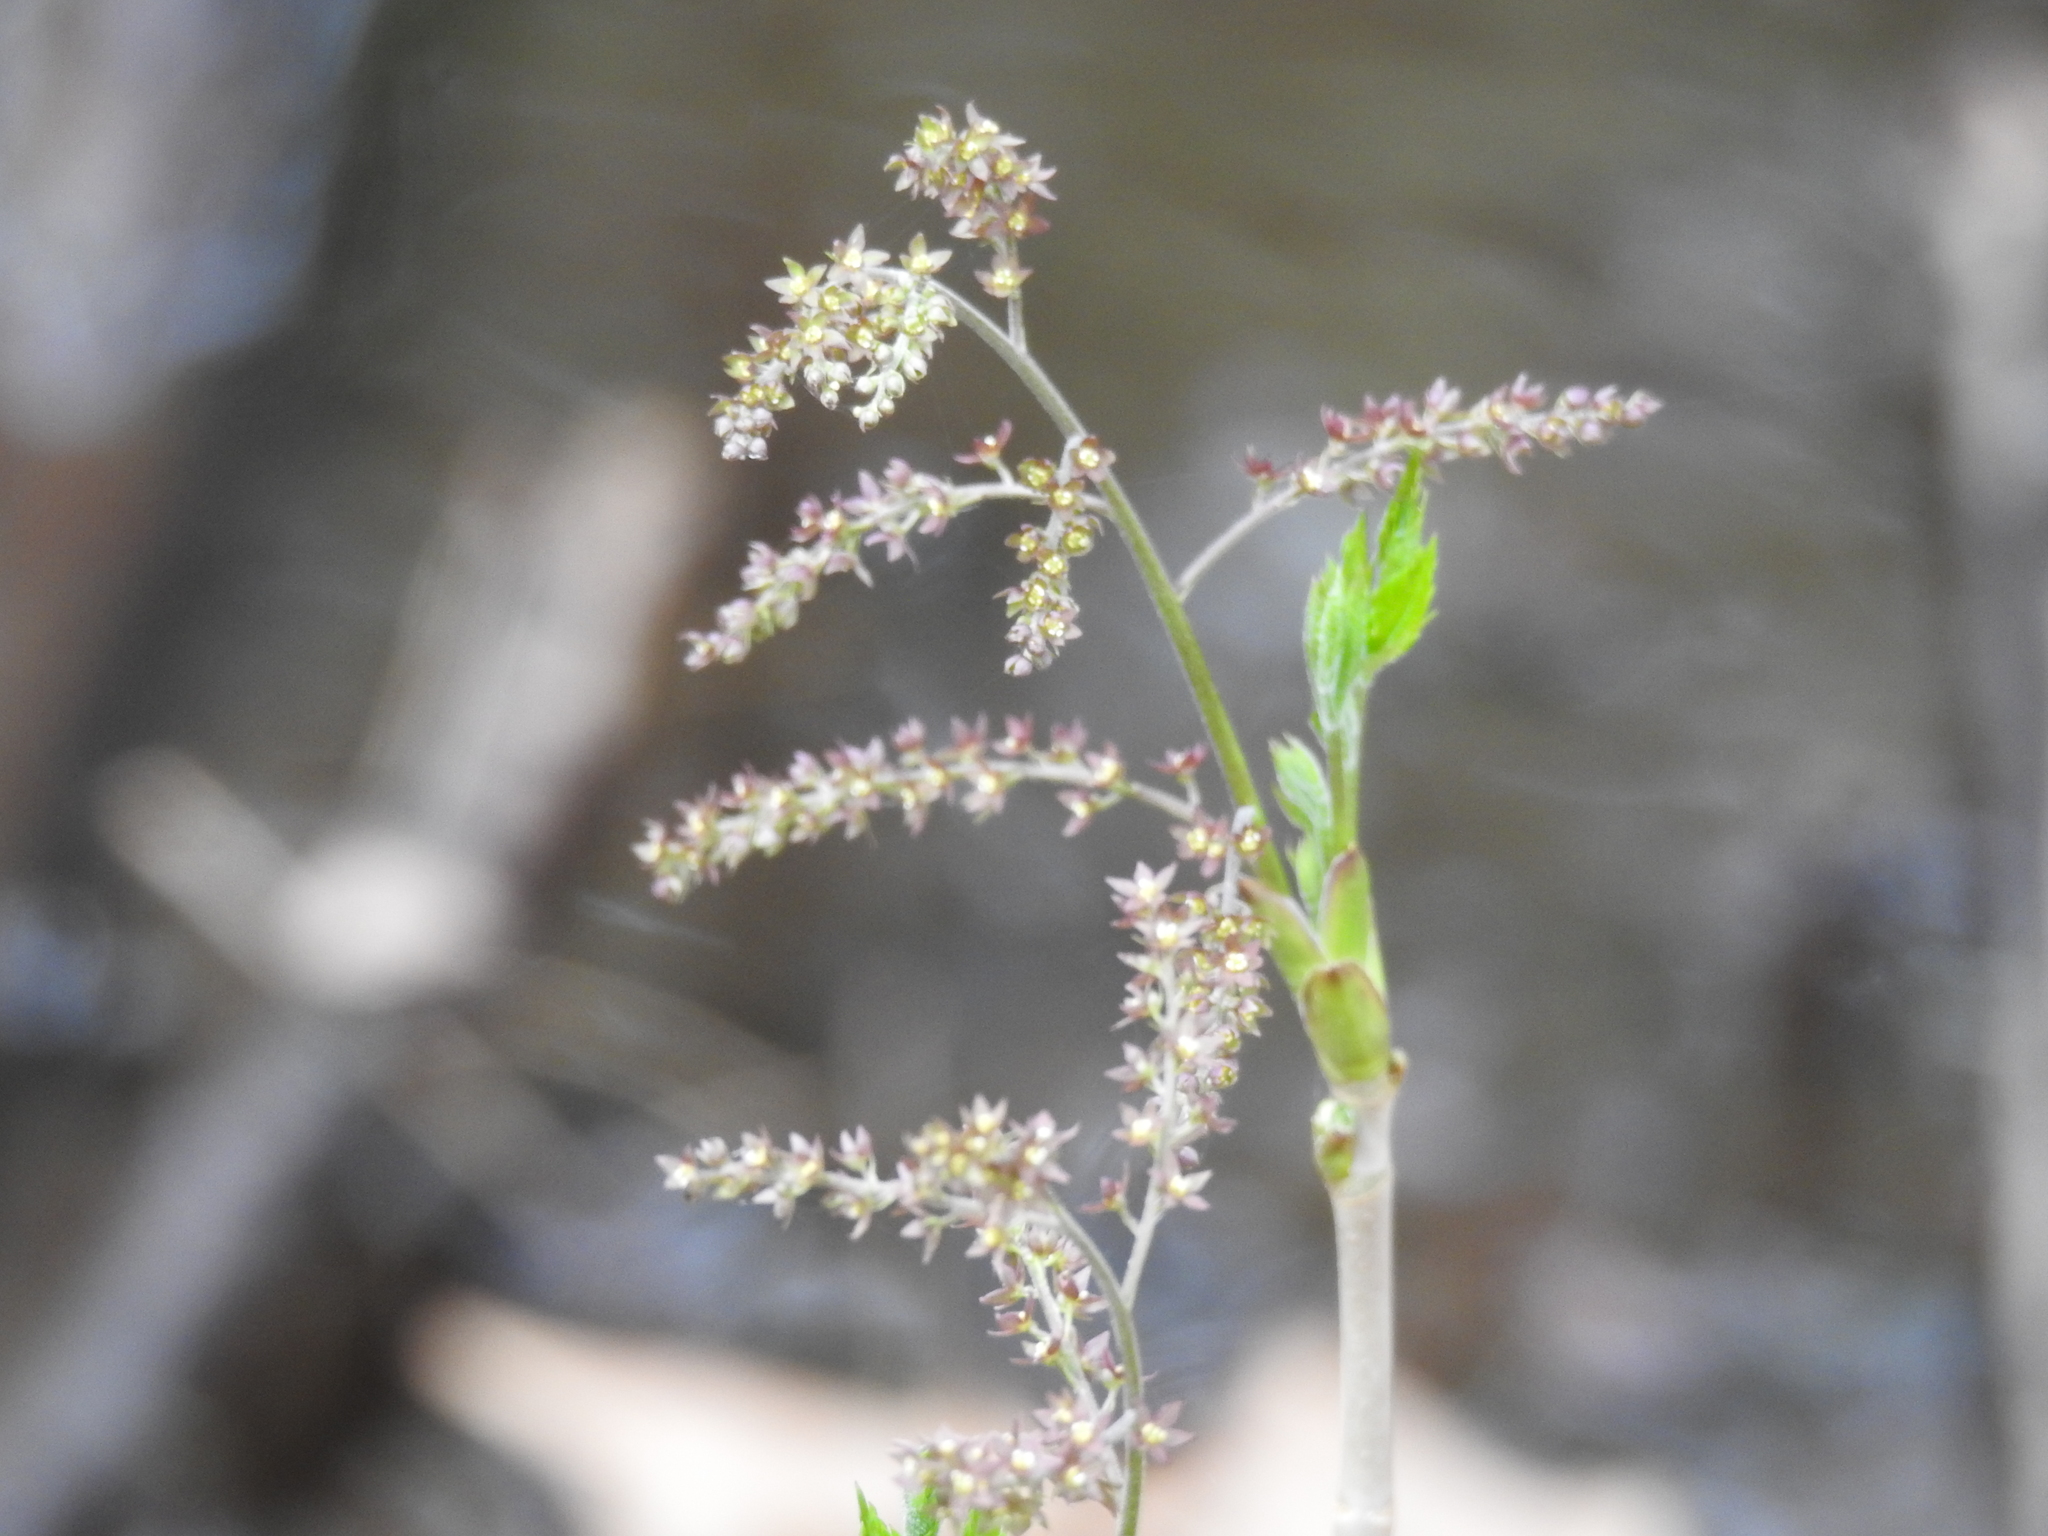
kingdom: Plantae
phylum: Tracheophyta
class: Magnoliopsida
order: Ranunculales
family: Ranunculaceae
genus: Xanthorhiza
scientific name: Xanthorhiza simplicissima
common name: Yellowroot
